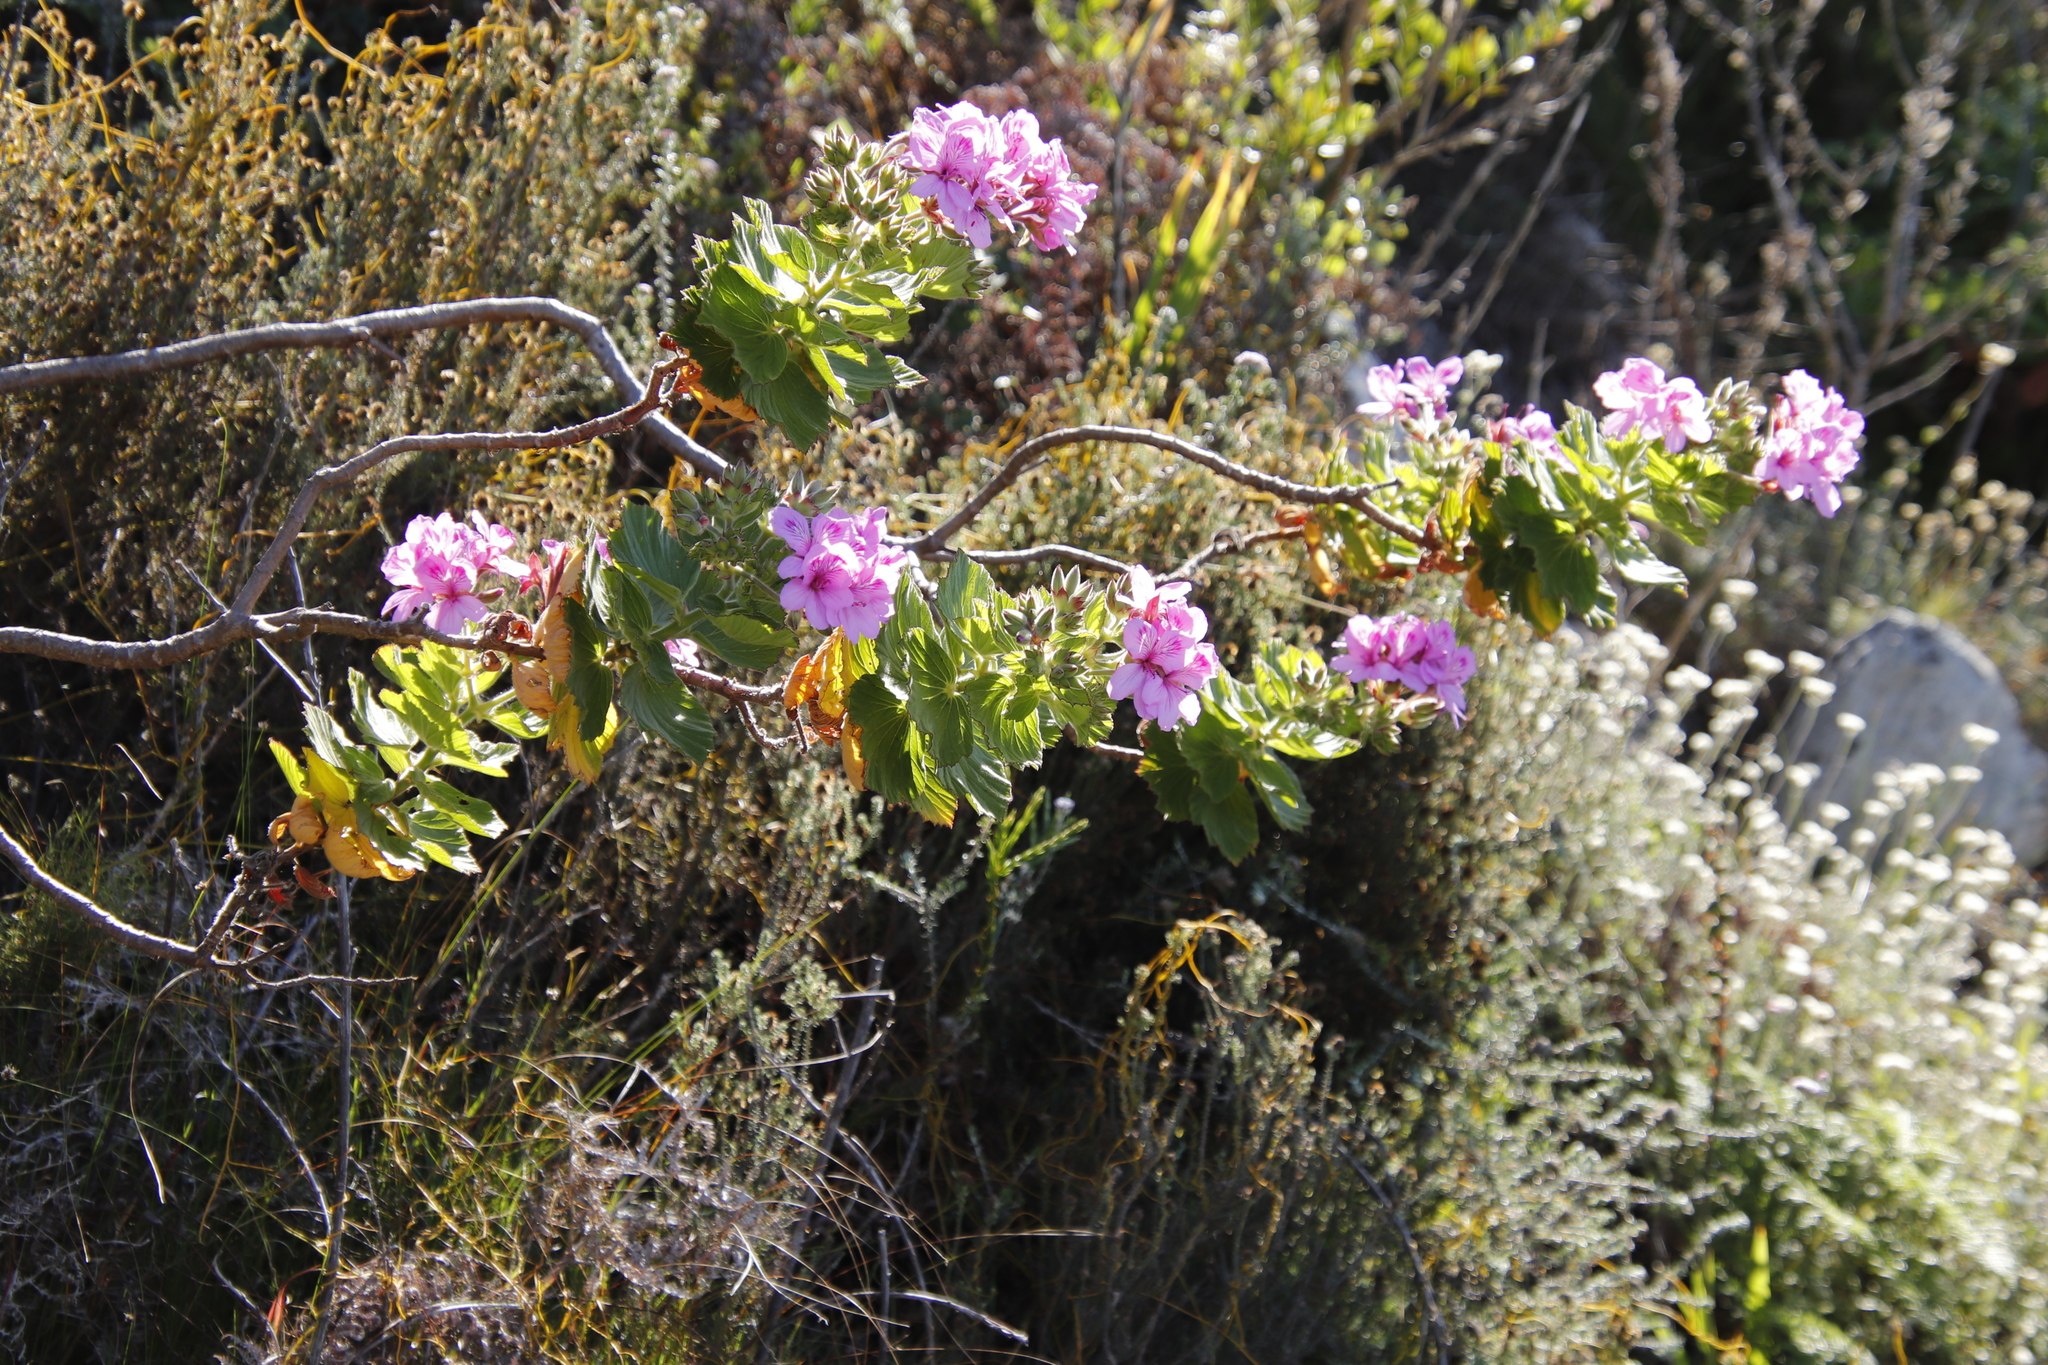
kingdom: Plantae
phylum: Tracheophyta
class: Magnoliopsida
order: Geraniales
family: Geraniaceae
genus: Pelargonium
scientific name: Pelargonium cucullatum
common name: Tree pelargonium
